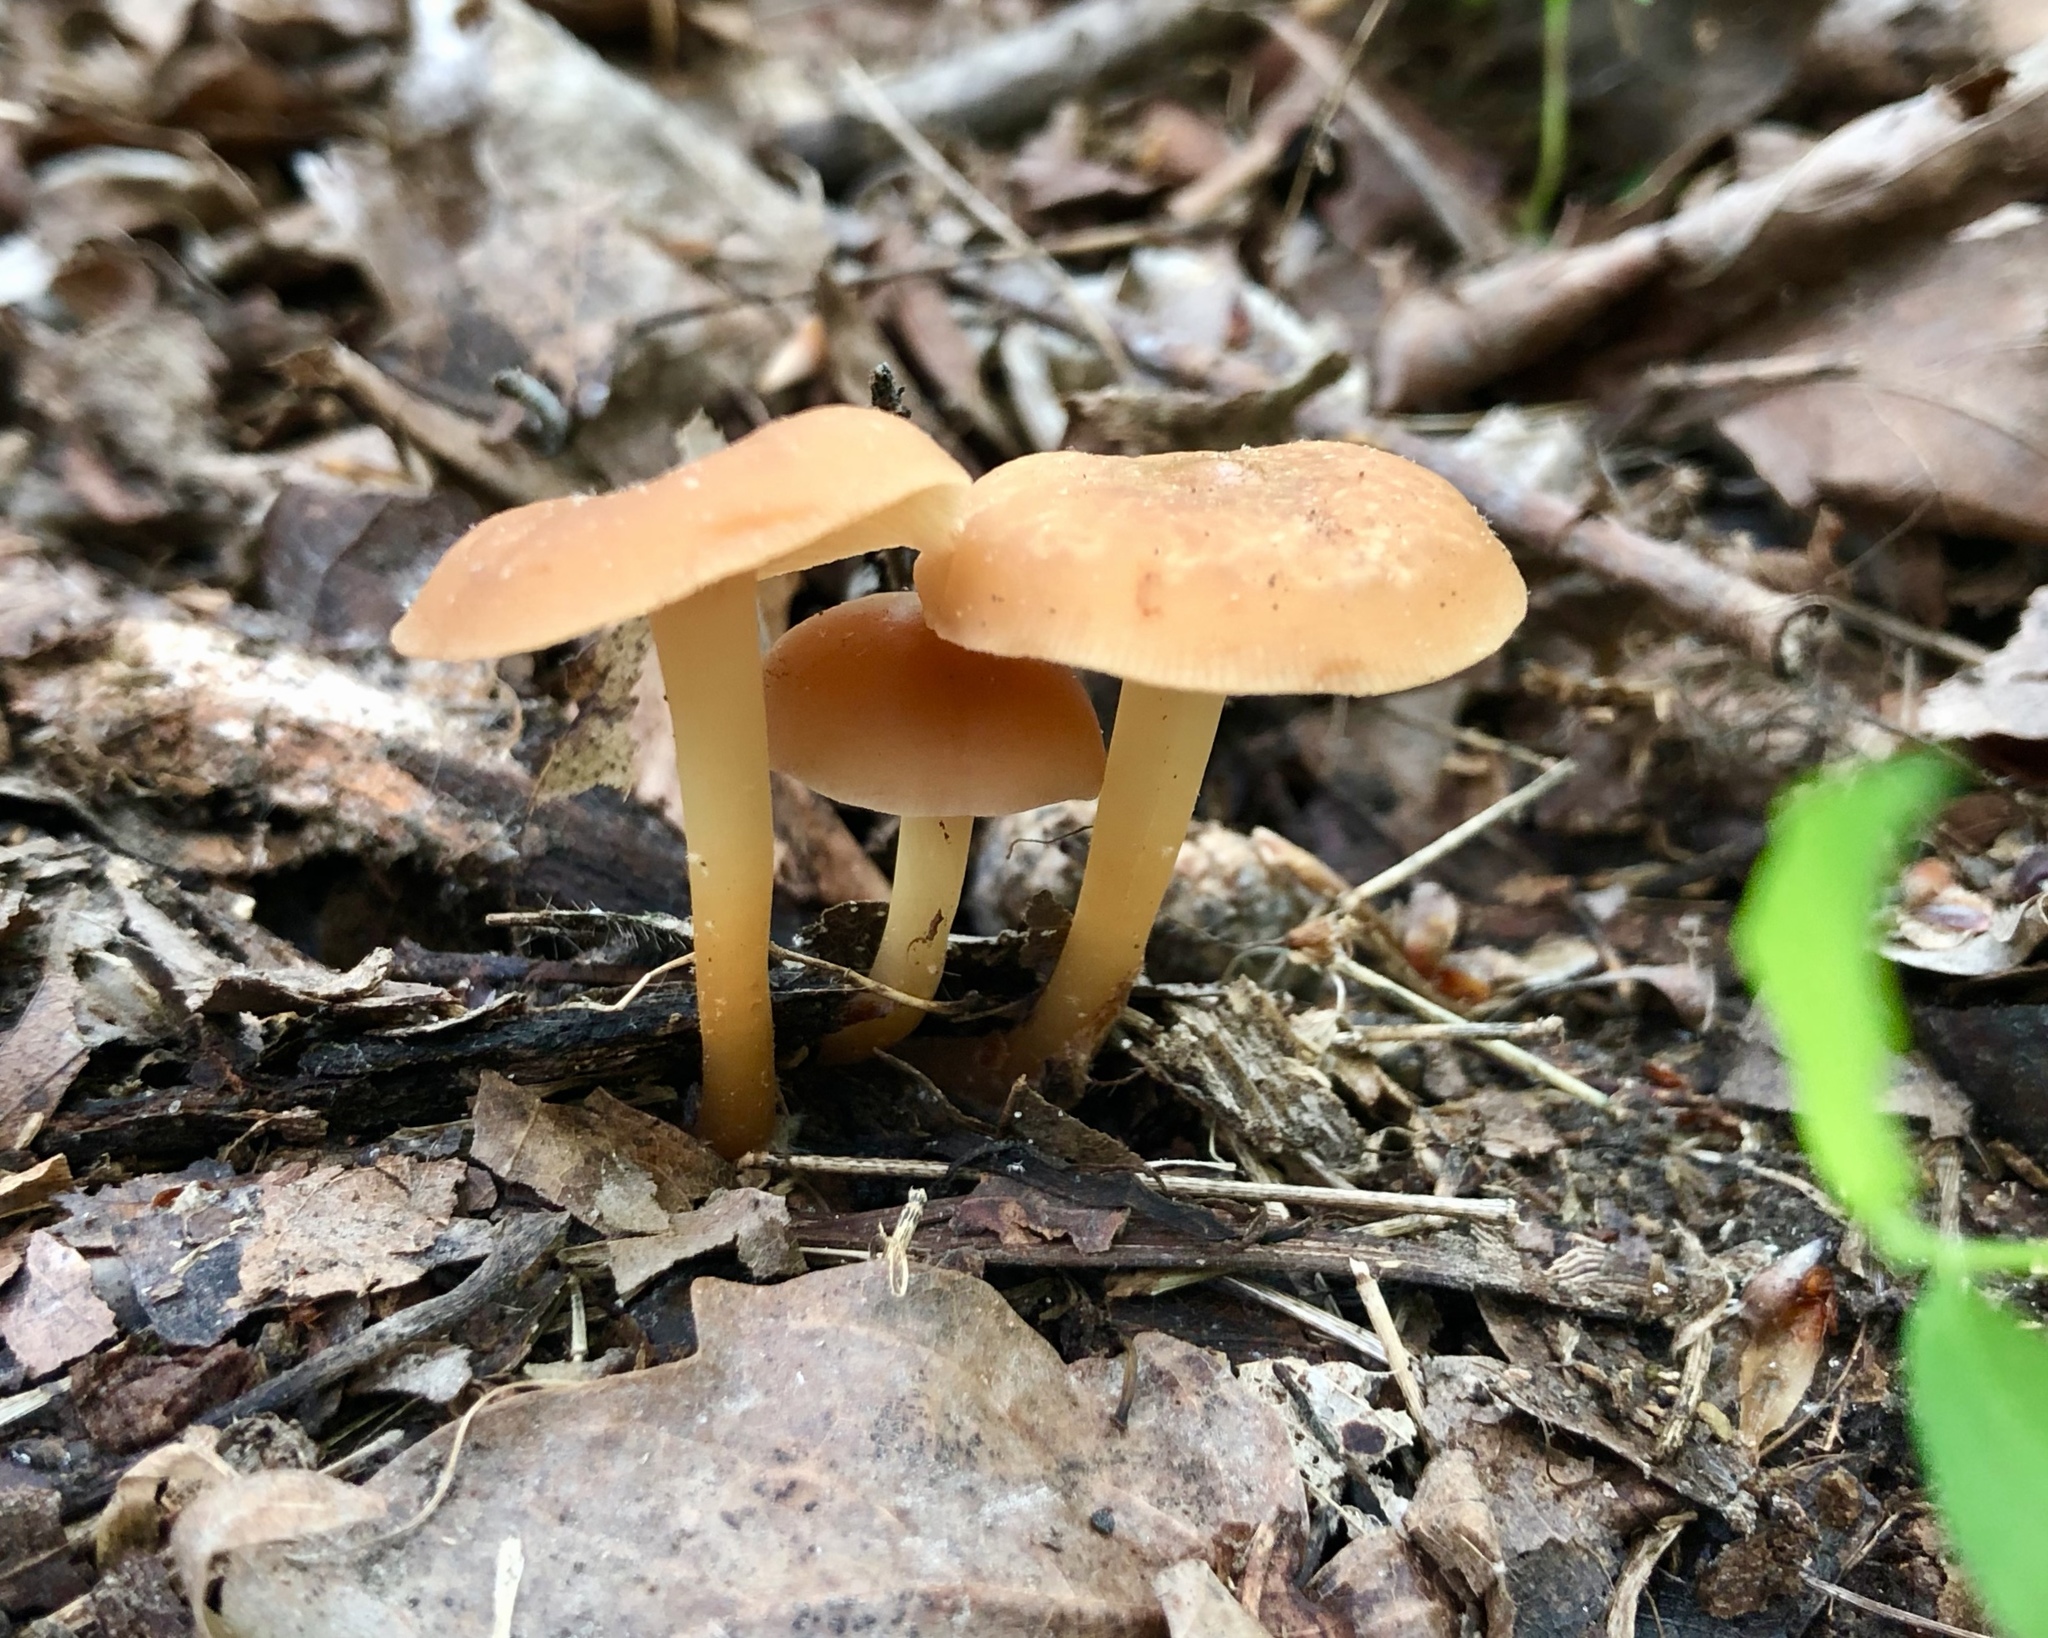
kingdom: Fungi
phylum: Basidiomycota
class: Agaricomycetes
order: Agaricales
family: Omphalotaceae
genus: Gymnopus
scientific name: Gymnopus dryophilus
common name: Penny top
